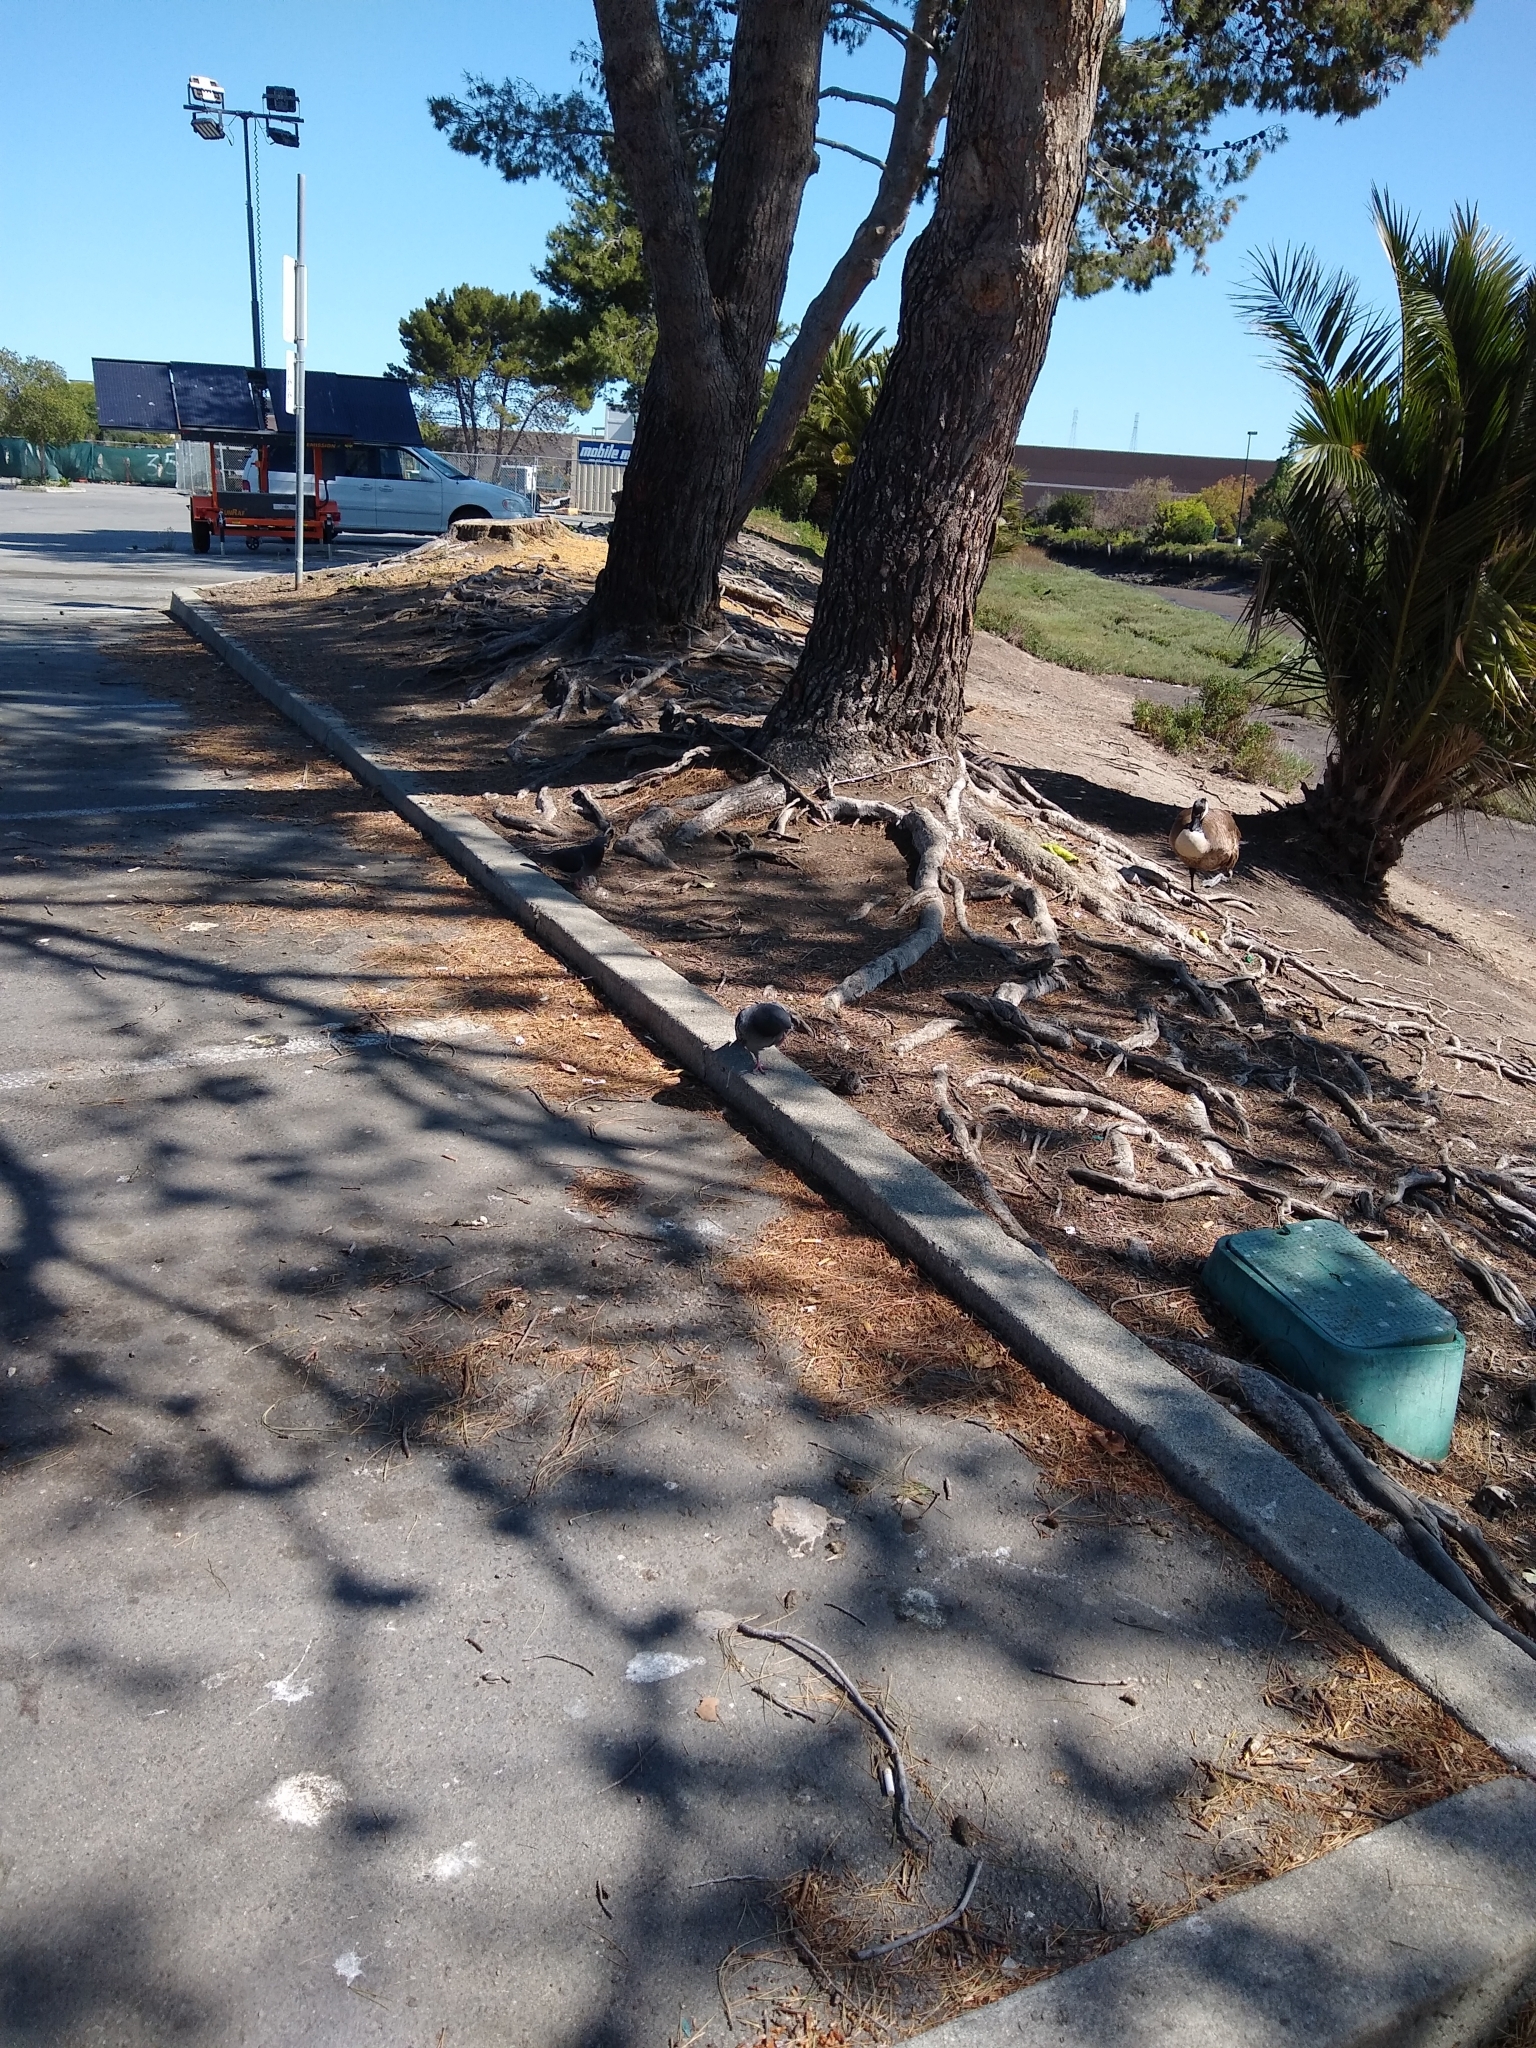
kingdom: Animalia
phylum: Chordata
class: Aves
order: Columbiformes
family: Columbidae
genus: Columba
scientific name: Columba livia
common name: Rock pigeon
